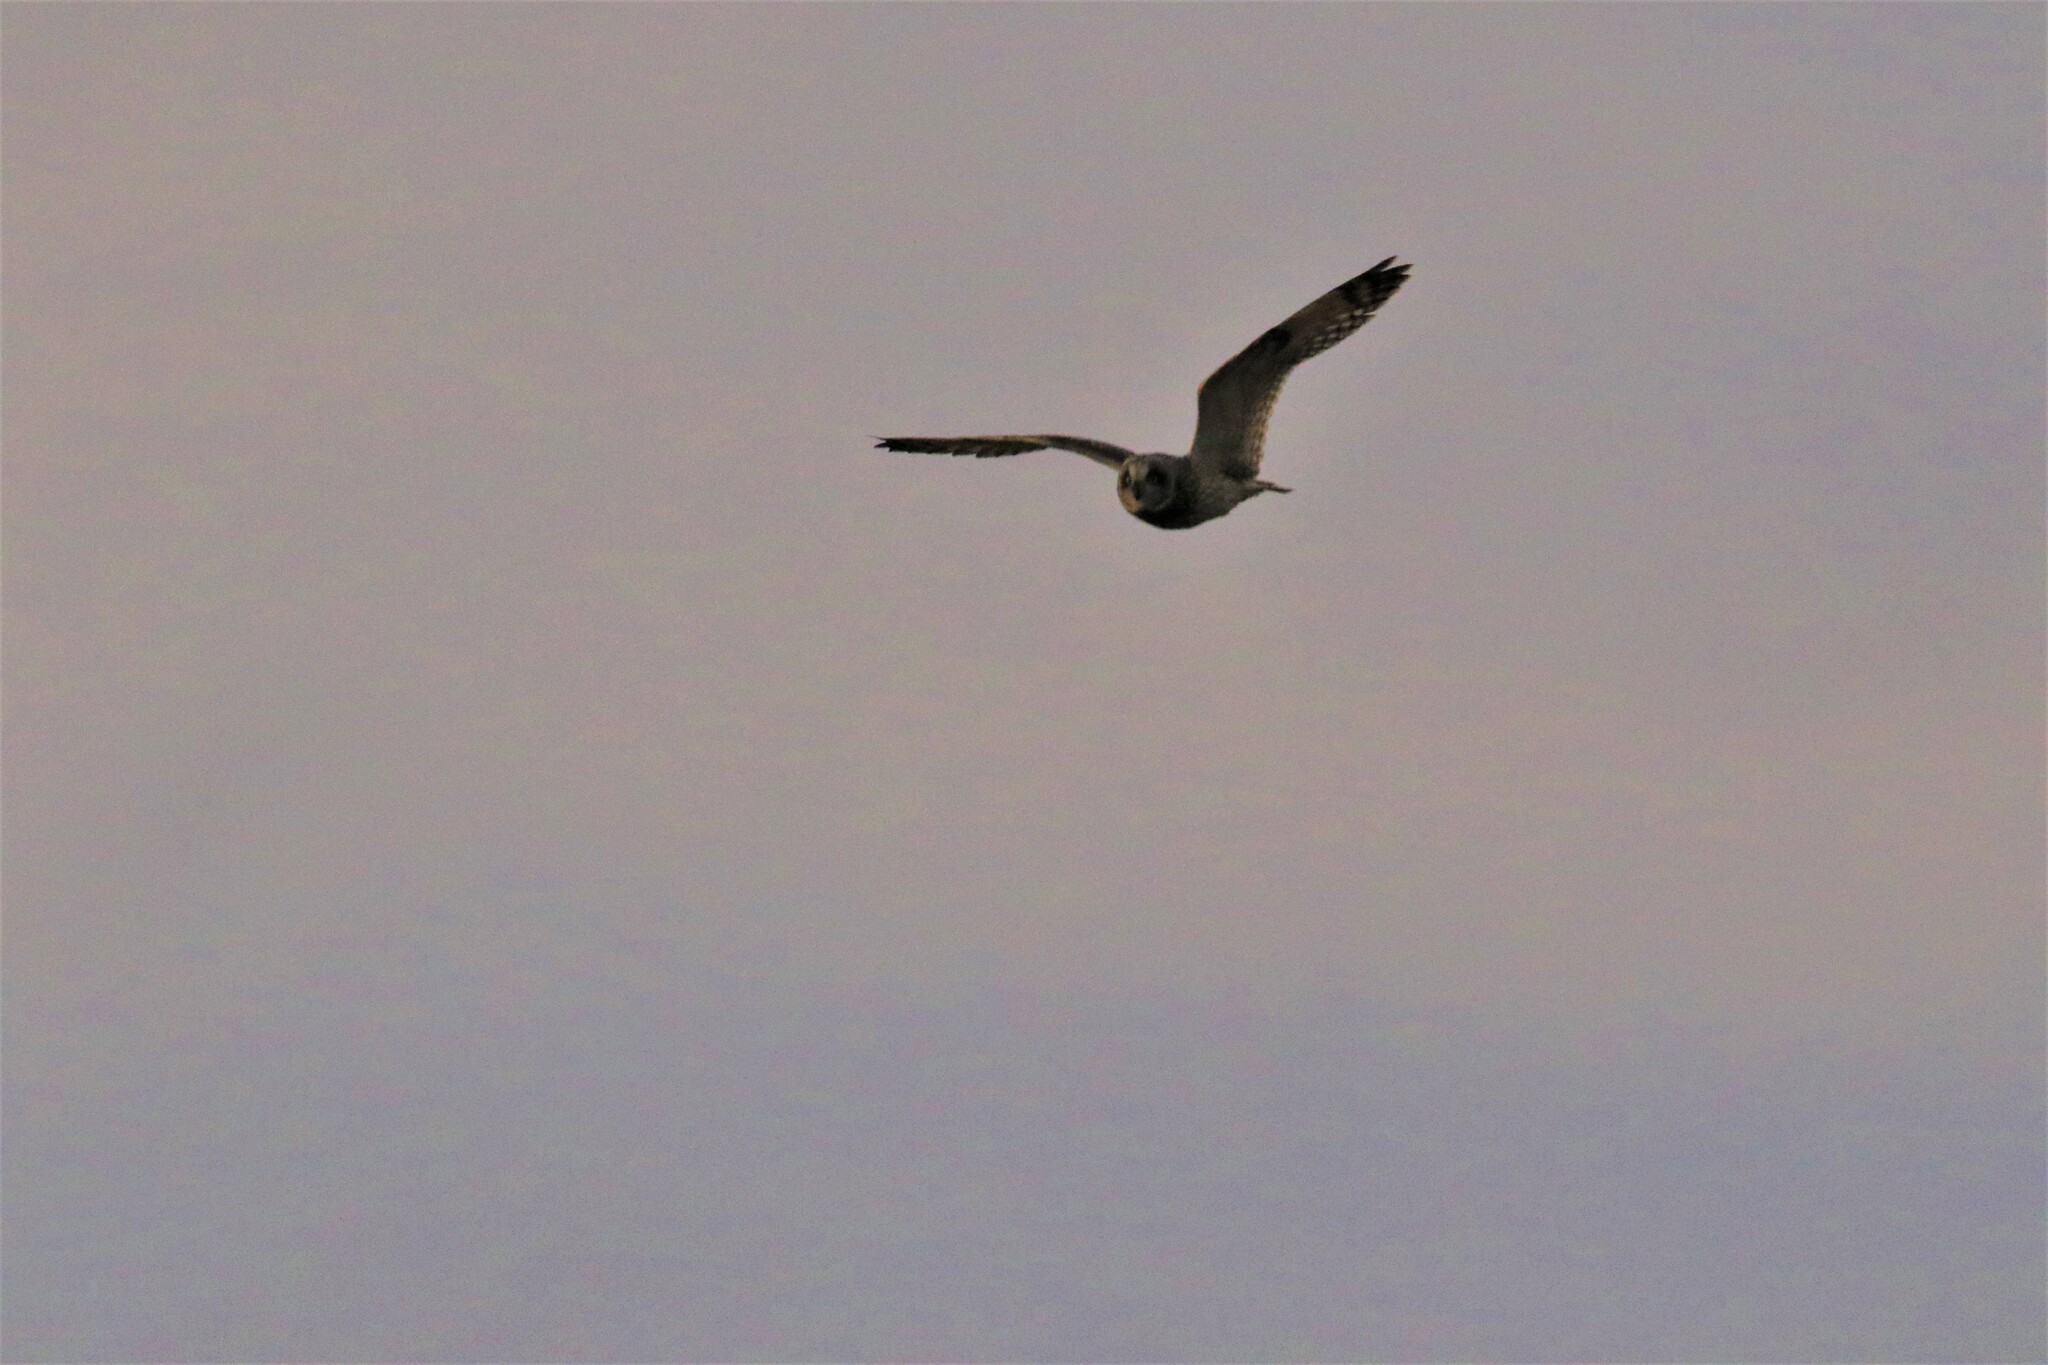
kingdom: Animalia
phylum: Chordata
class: Aves
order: Strigiformes
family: Strigidae
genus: Asio
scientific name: Asio flammeus
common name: Short-eared owl
